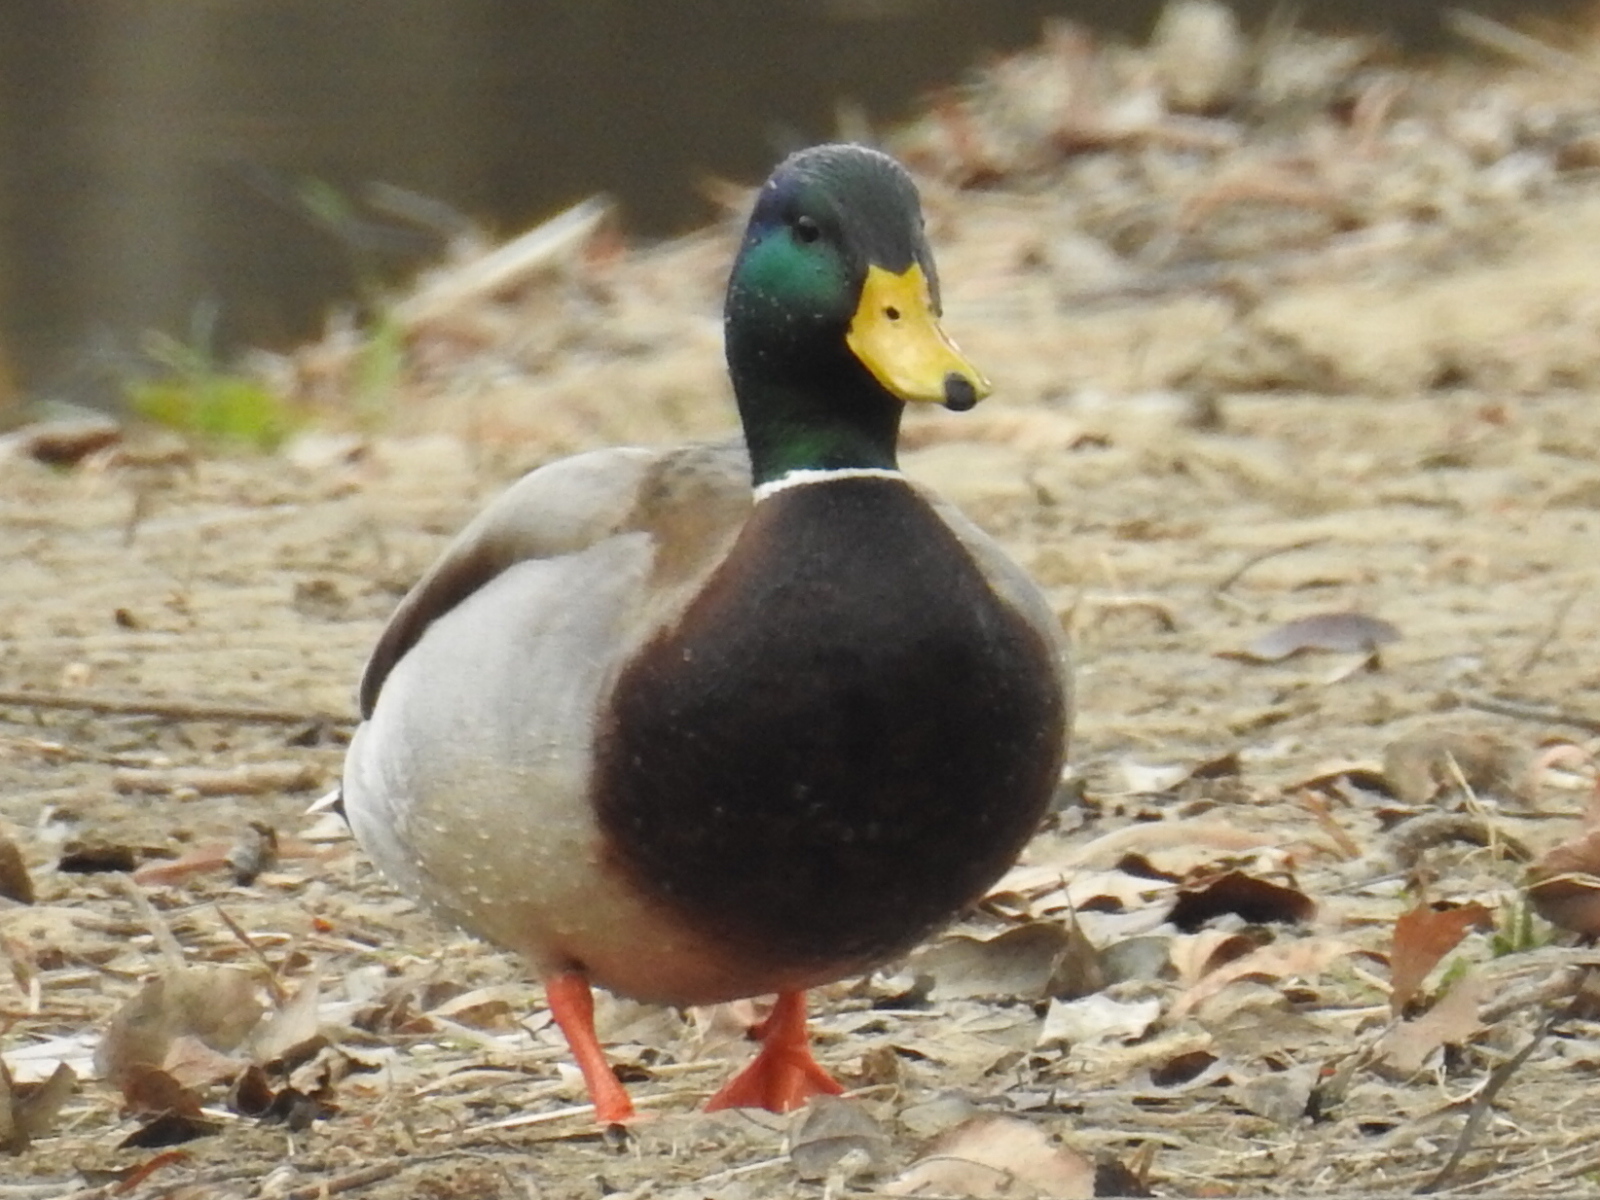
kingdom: Animalia
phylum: Chordata
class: Aves
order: Anseriformes
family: Anatidae
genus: Anas
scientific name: Anas platyrhynchos
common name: Mallard
